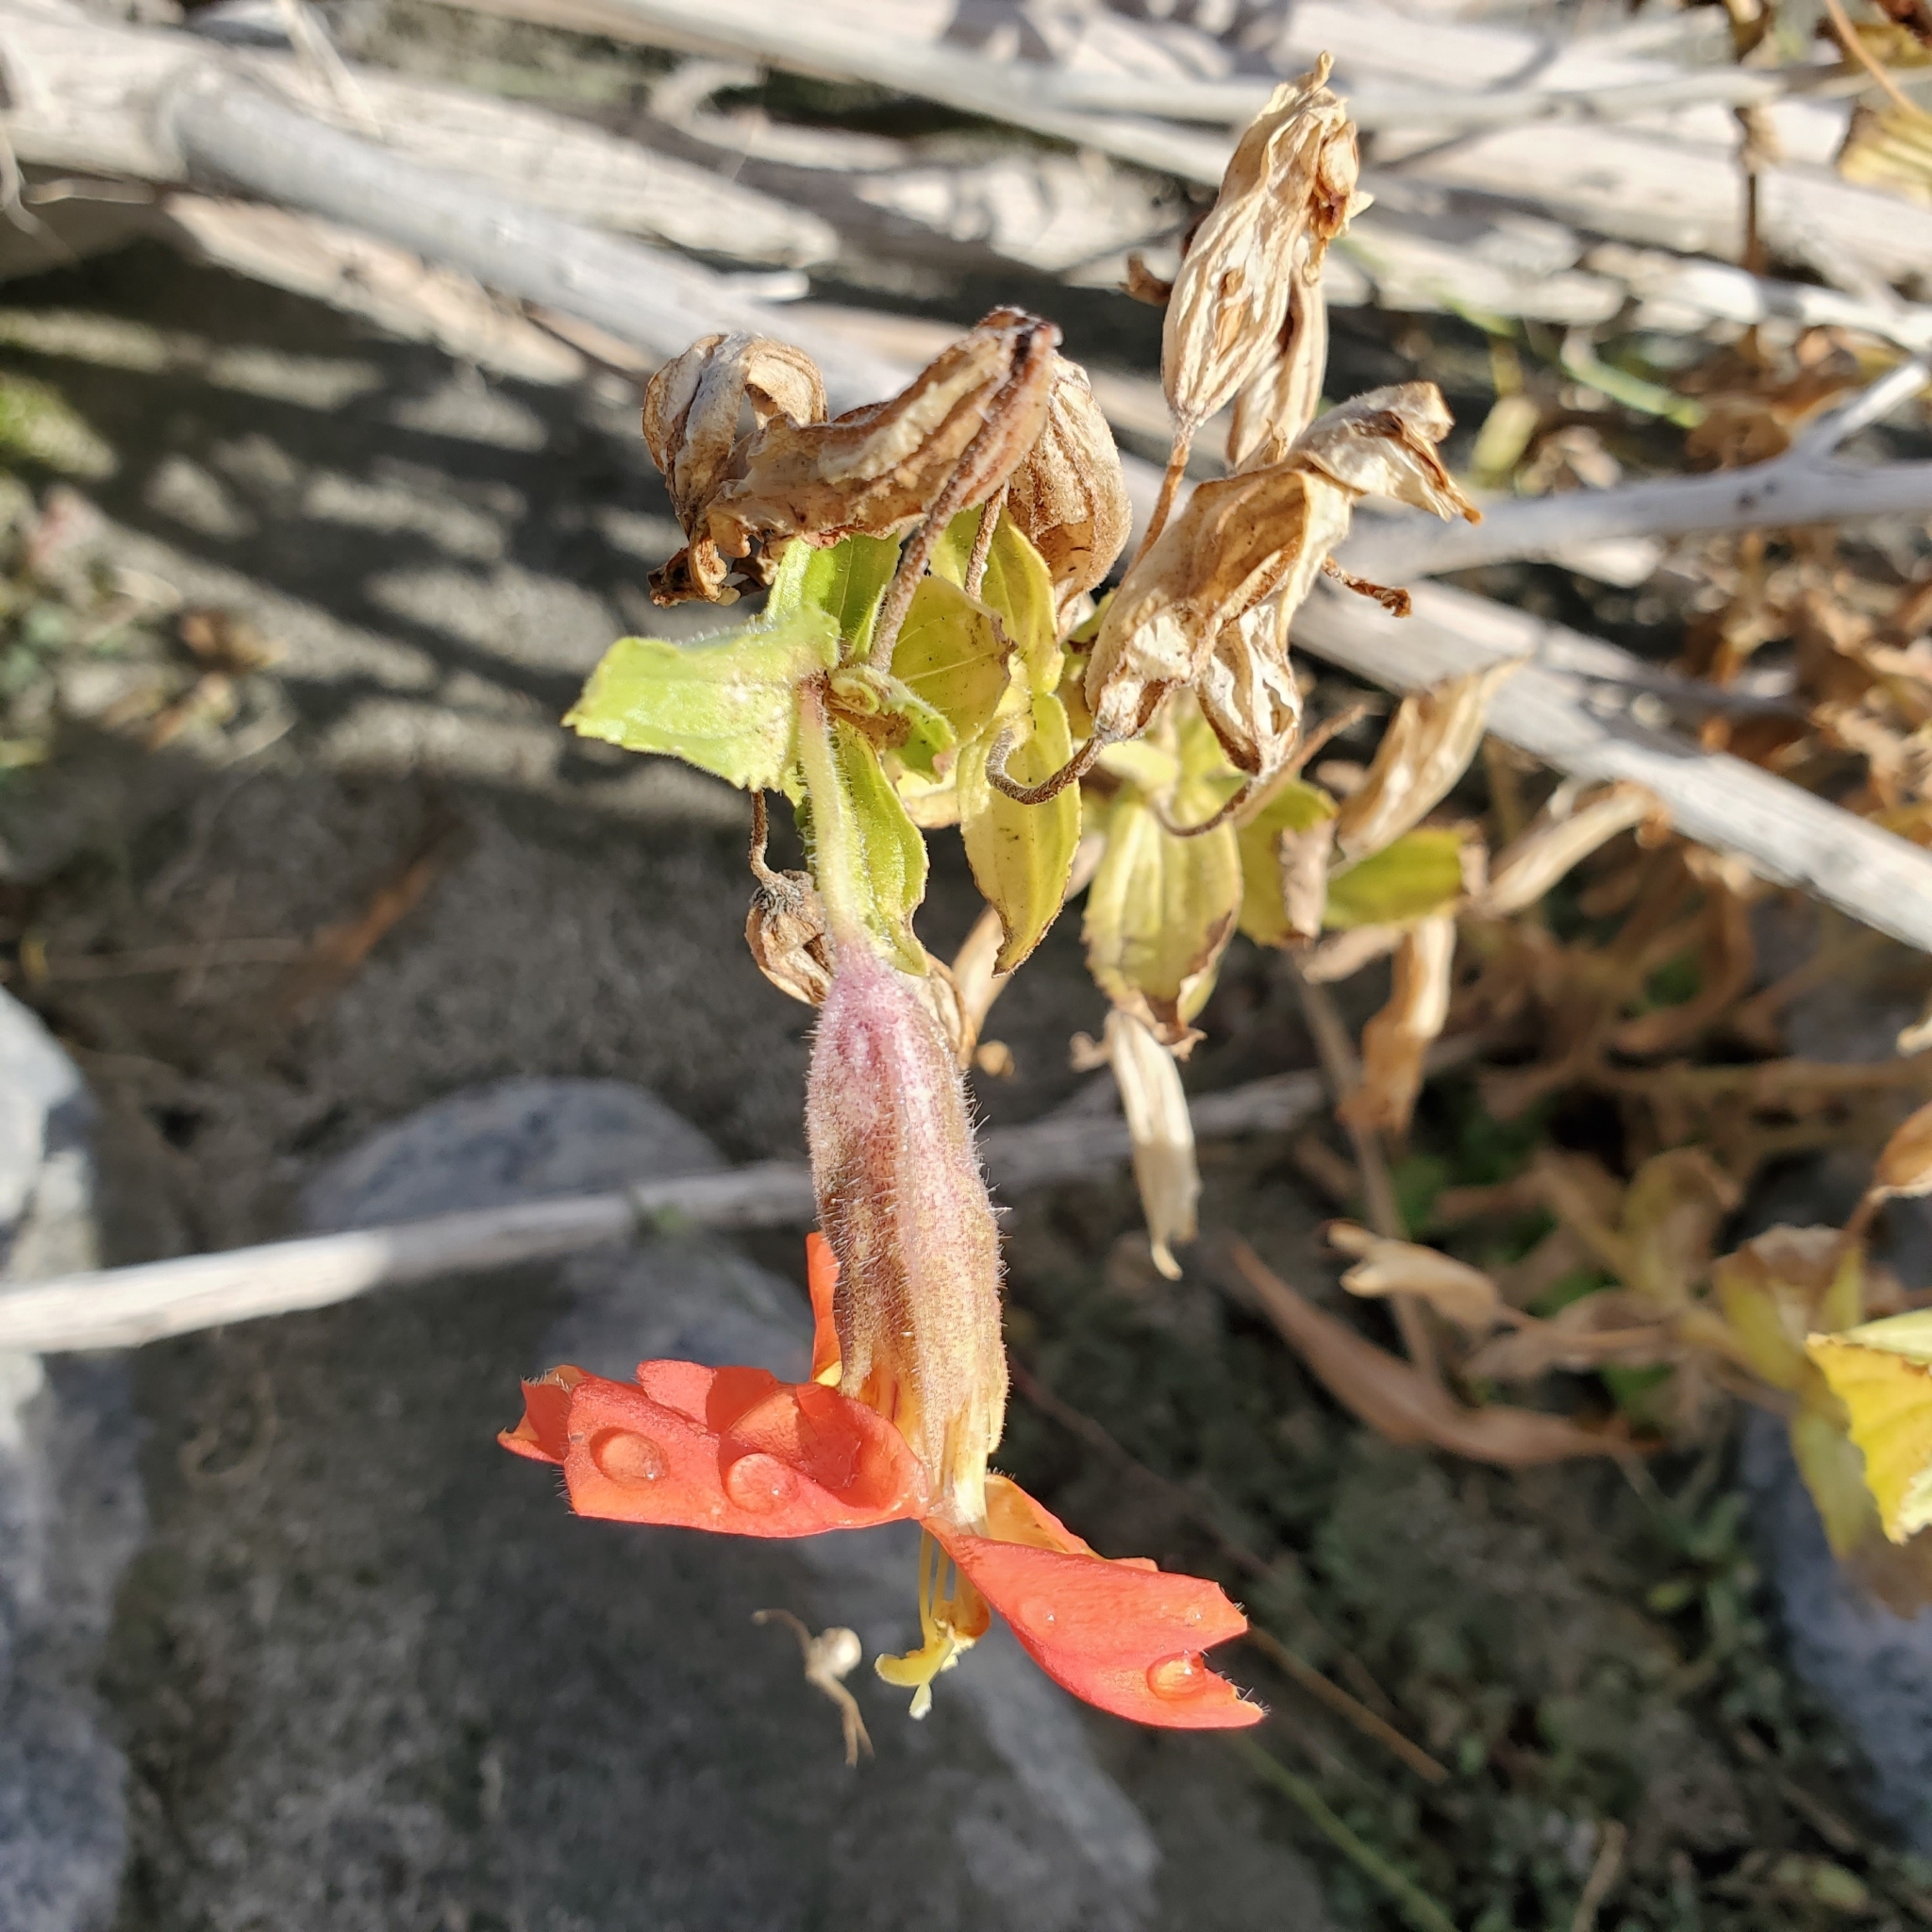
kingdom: Plantae
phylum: Tracheophyta
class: Magnoliopsida
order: Lamiales
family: Phrymaceae
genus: Erythranthe
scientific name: Erythranthe cardinalis
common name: Scarlet monkey-flower
